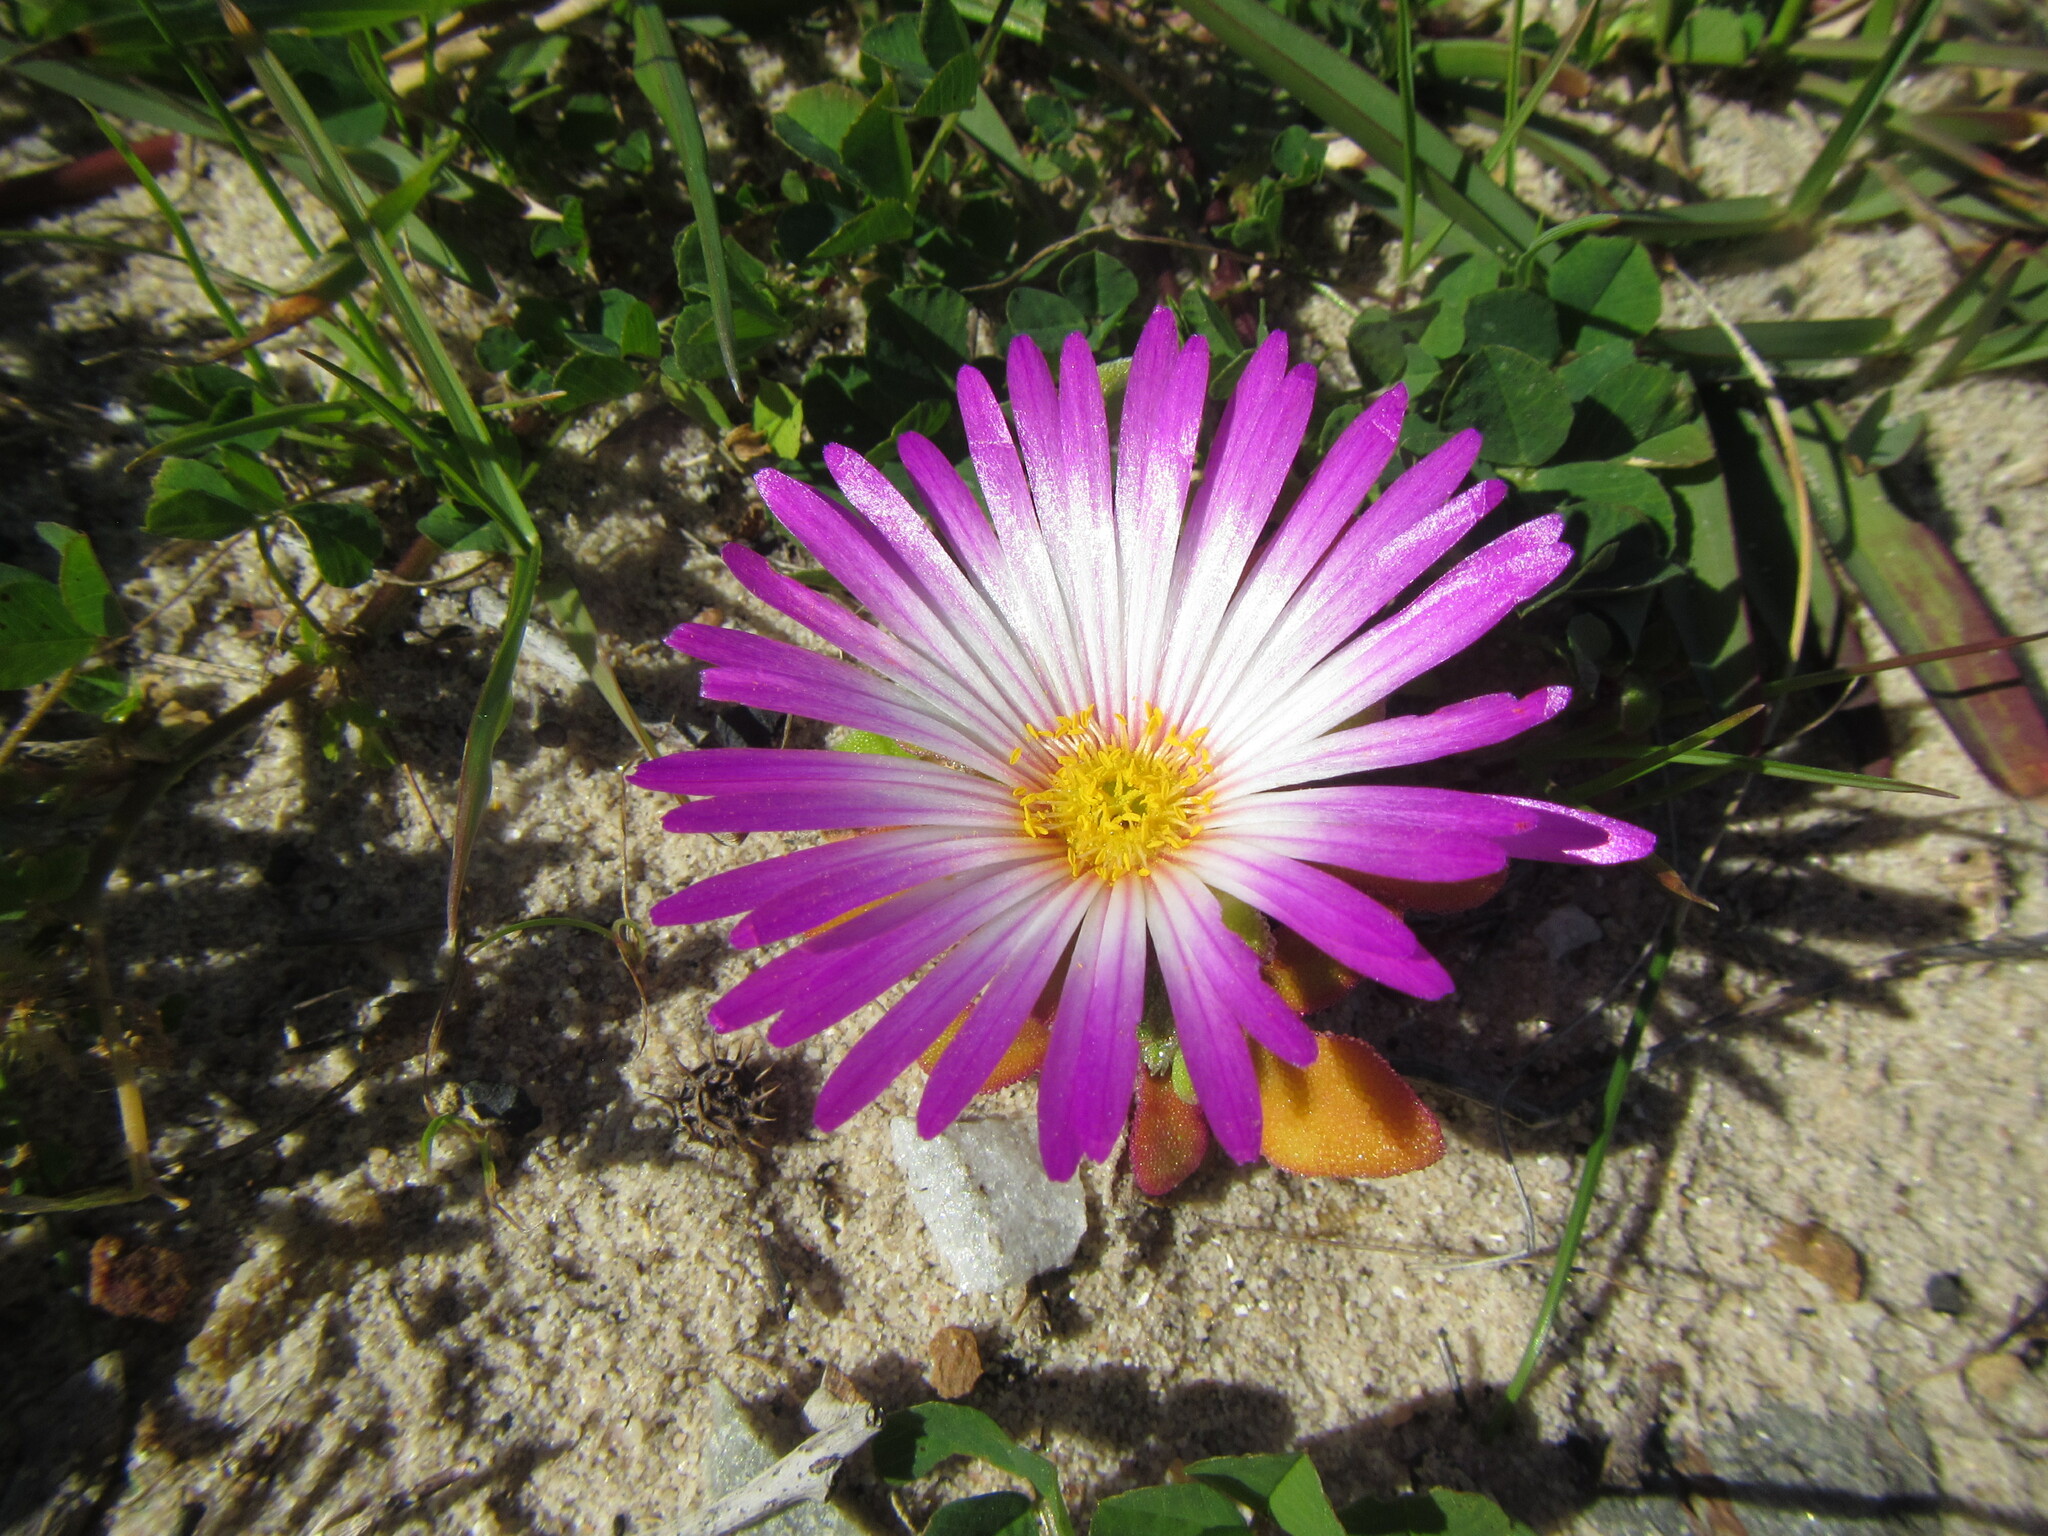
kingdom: Plantae
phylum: Tracheophyta
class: Magnoliopsida
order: Caryophyllales
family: Aizoaceae
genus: Cleretum
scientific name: Cleretum bellidiforme
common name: Livingstone daisy
